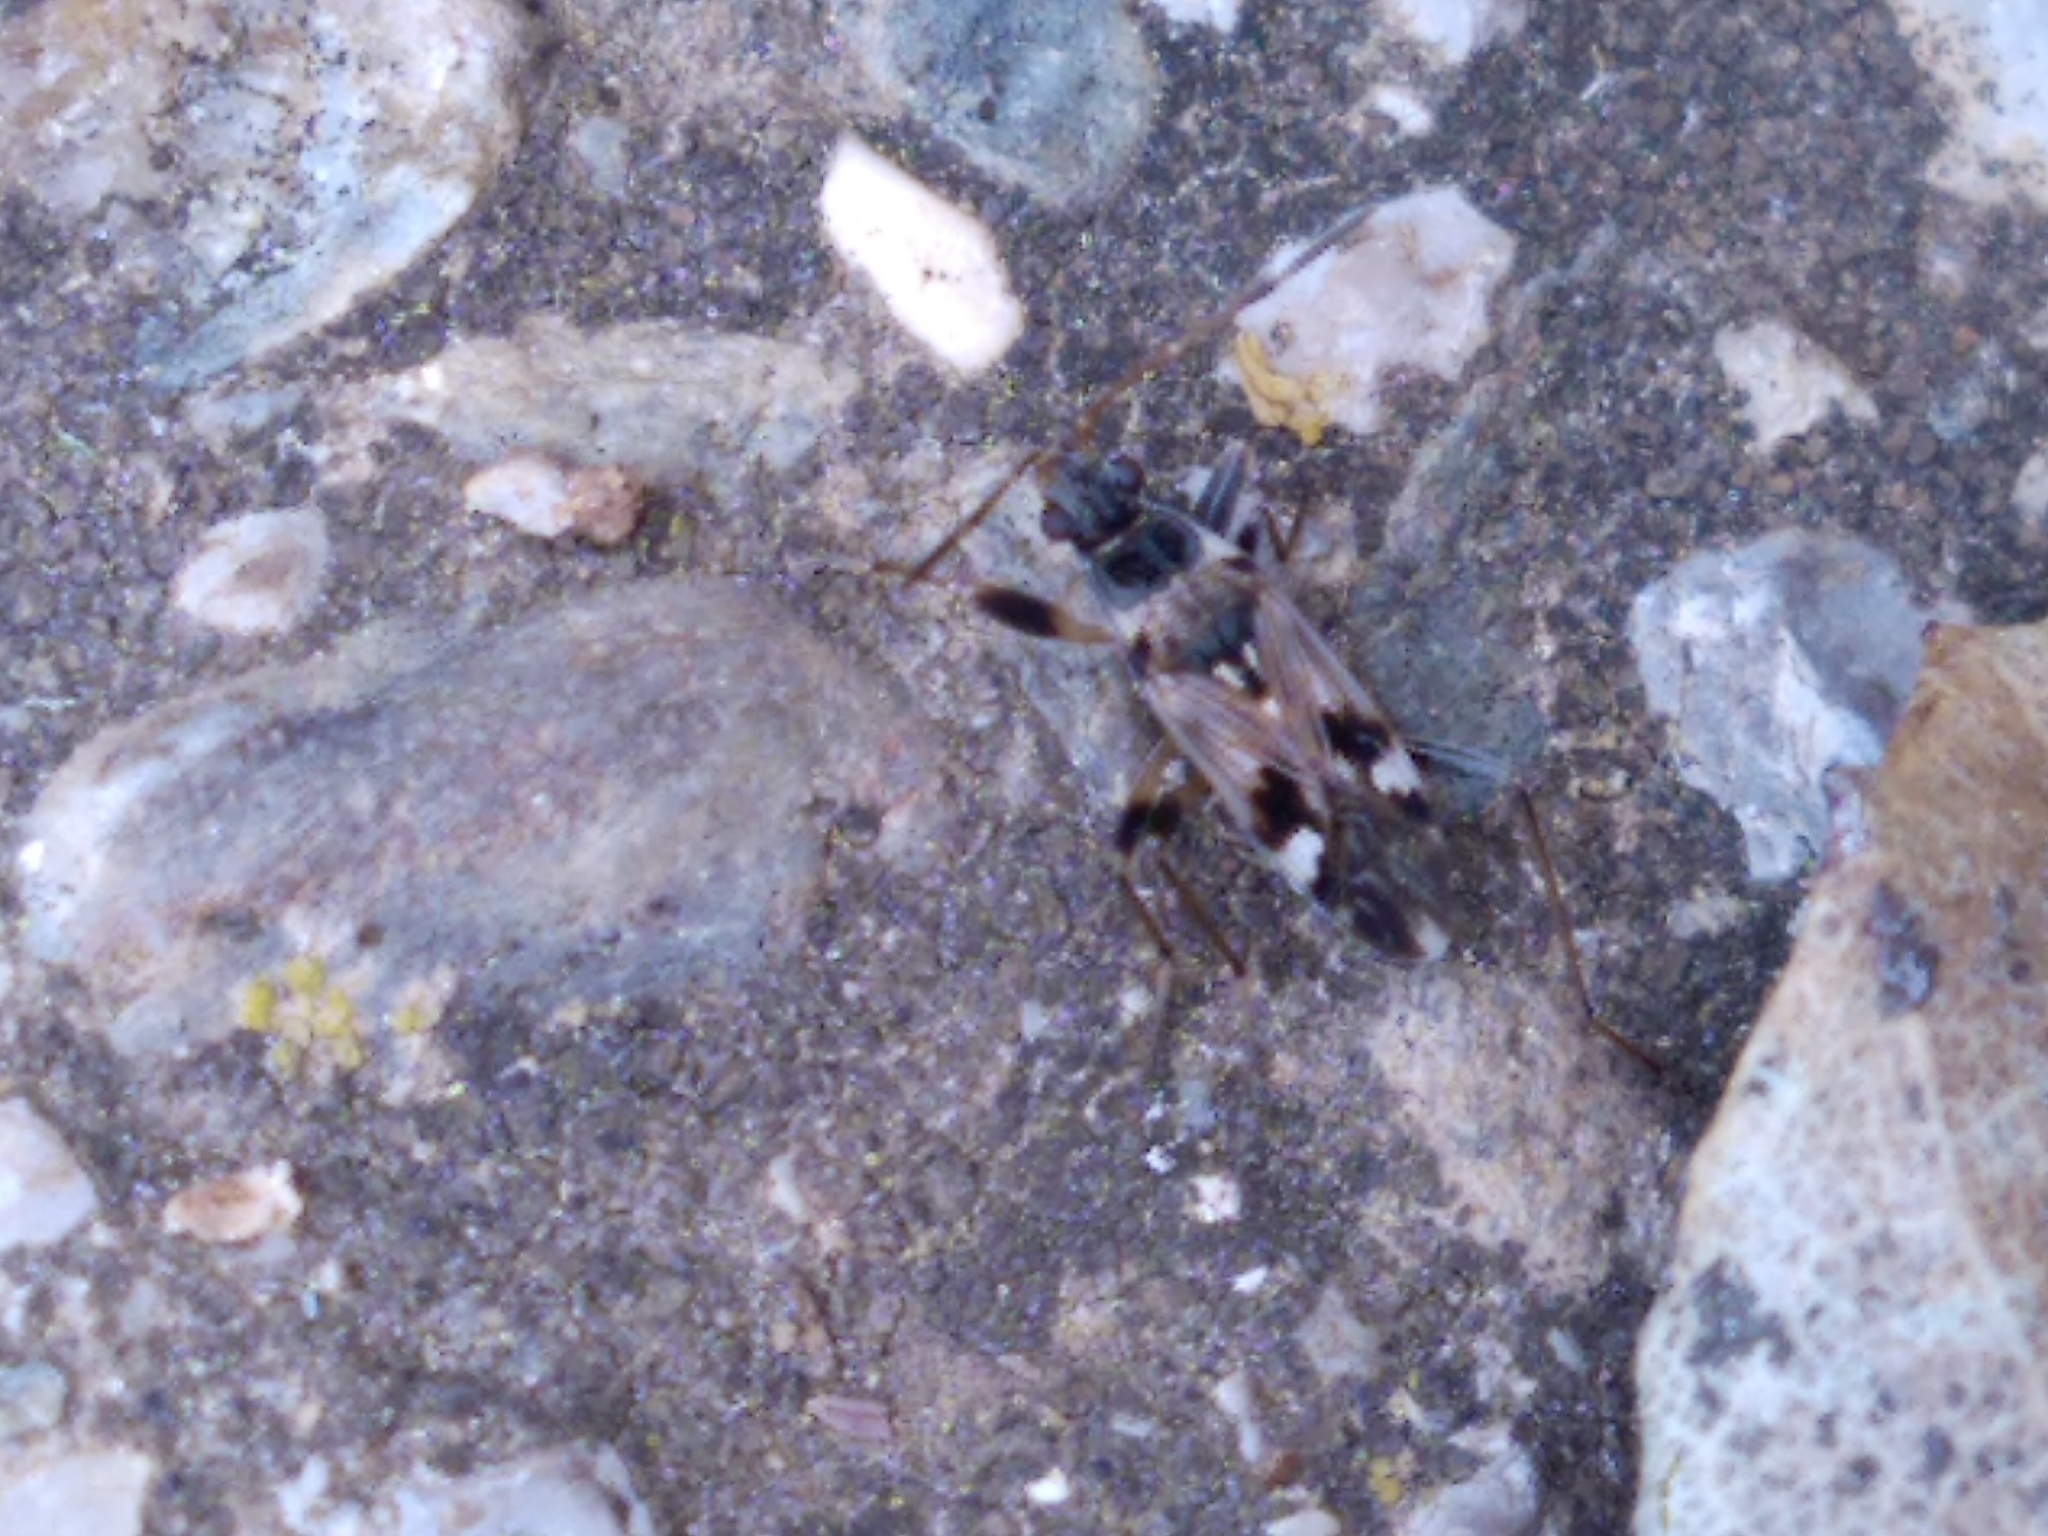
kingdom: Animalia
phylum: Arthropoda
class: Insecta
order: Hemiptera
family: Rhyparochromidae
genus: Beosus
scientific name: Beosus maritimus
